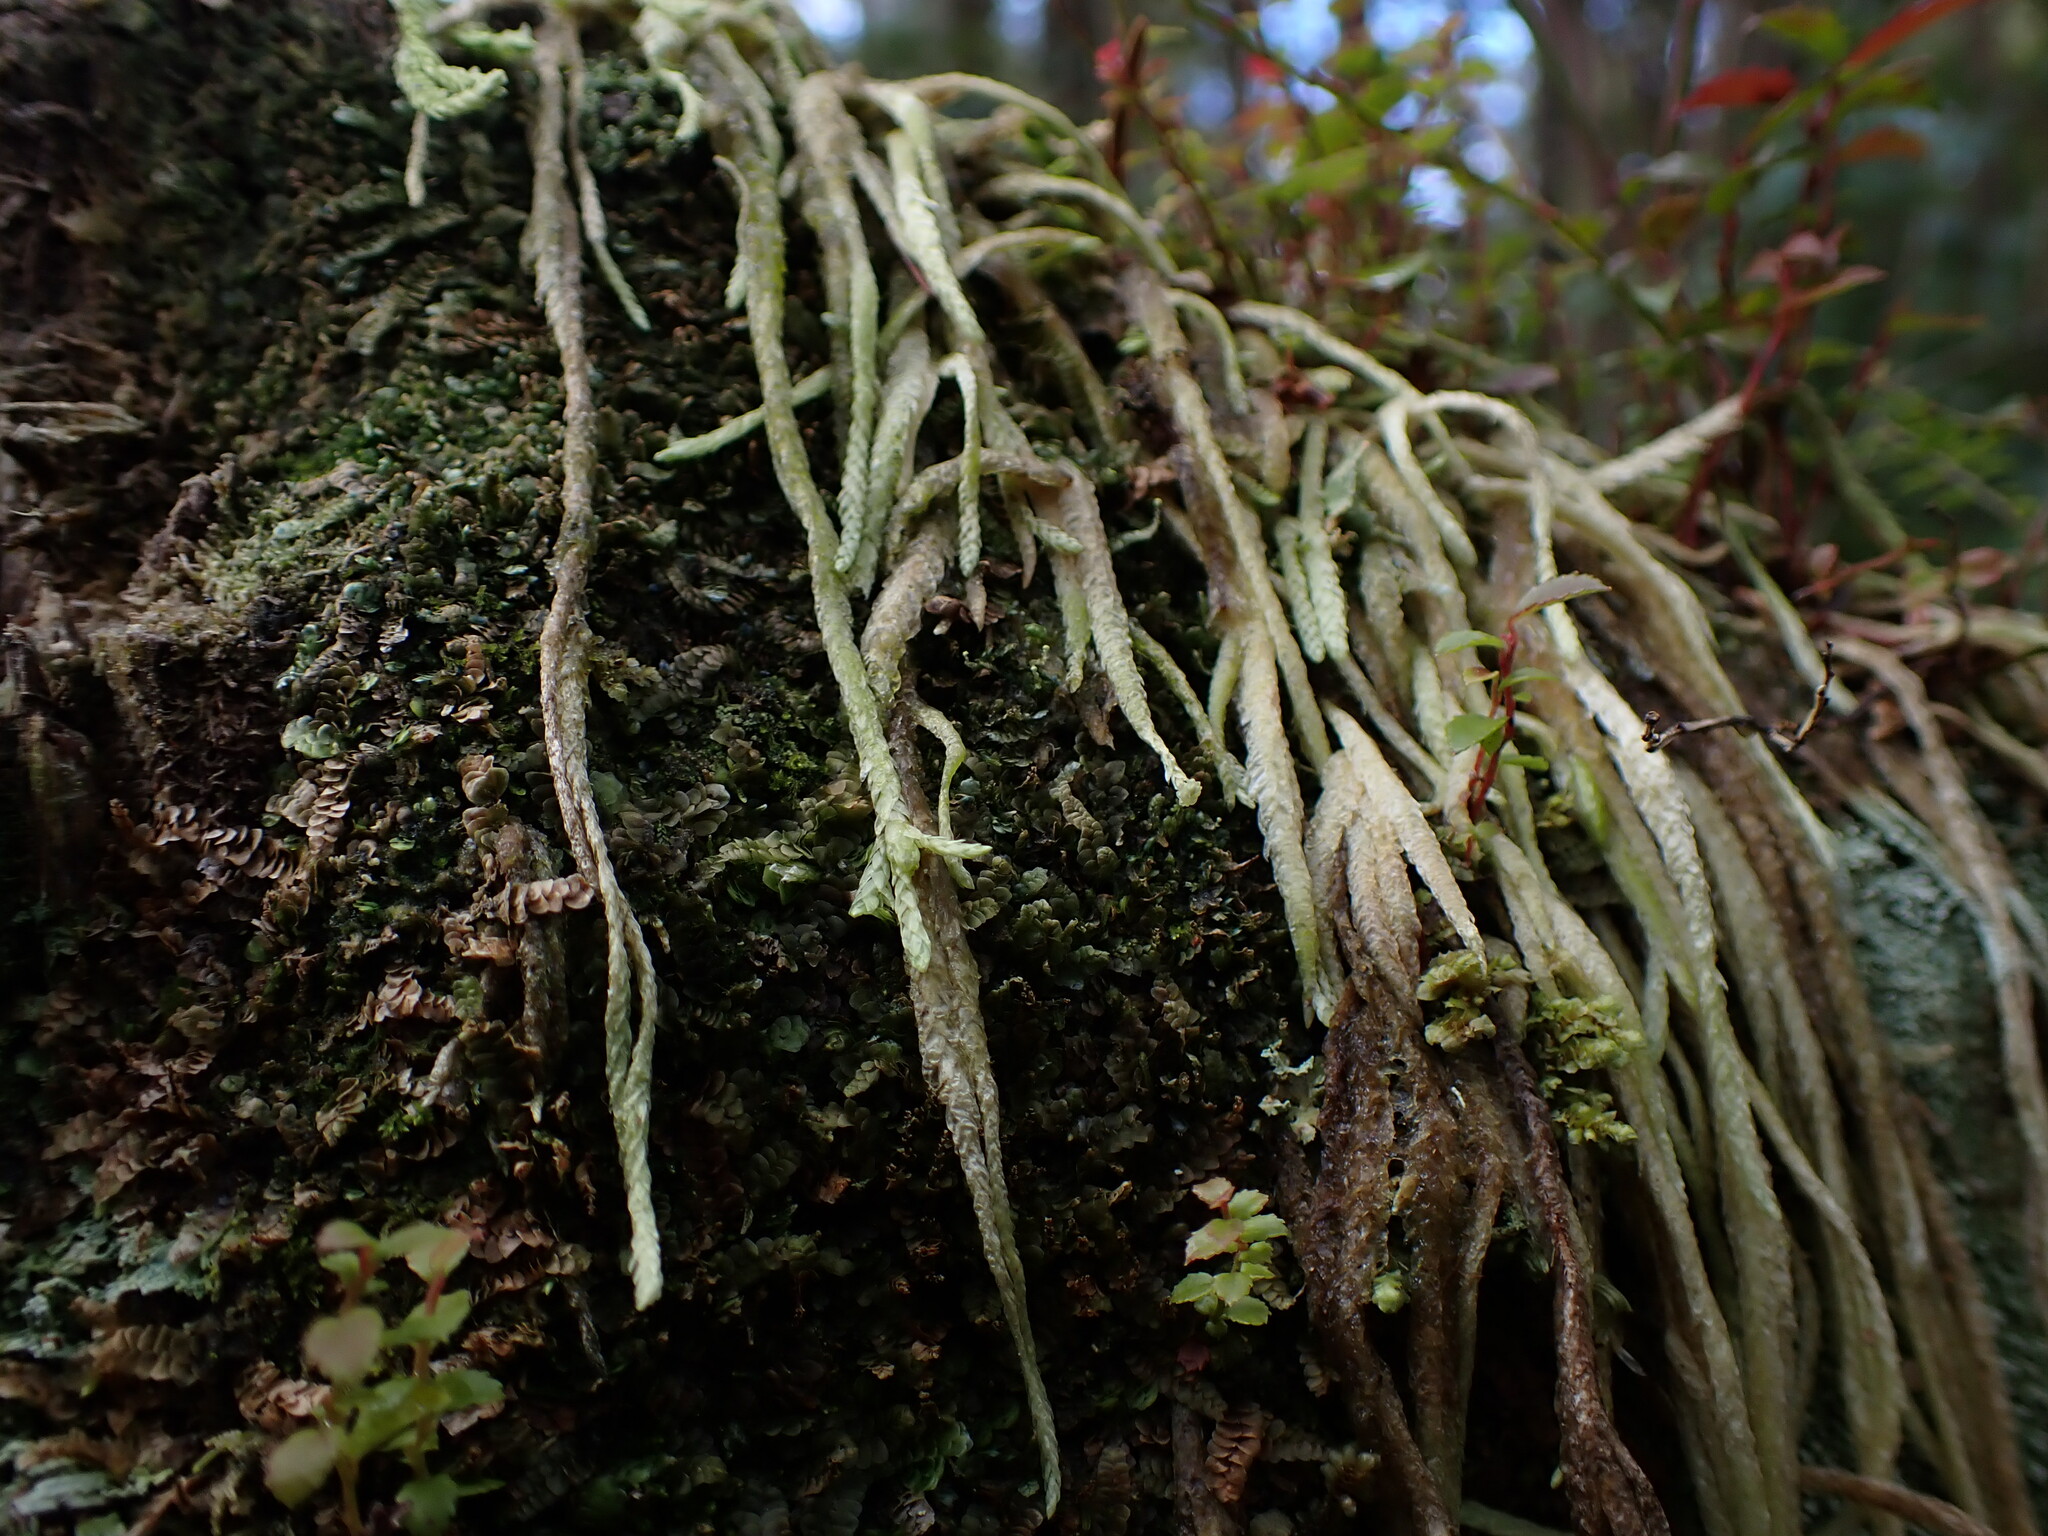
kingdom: Plantae
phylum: Bryophyta
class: Bryopsida
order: Hypnales
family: Plagiotheciaceae
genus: Plagiothecium
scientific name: Plagiothecium undulatum
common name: Waved silk-moss
